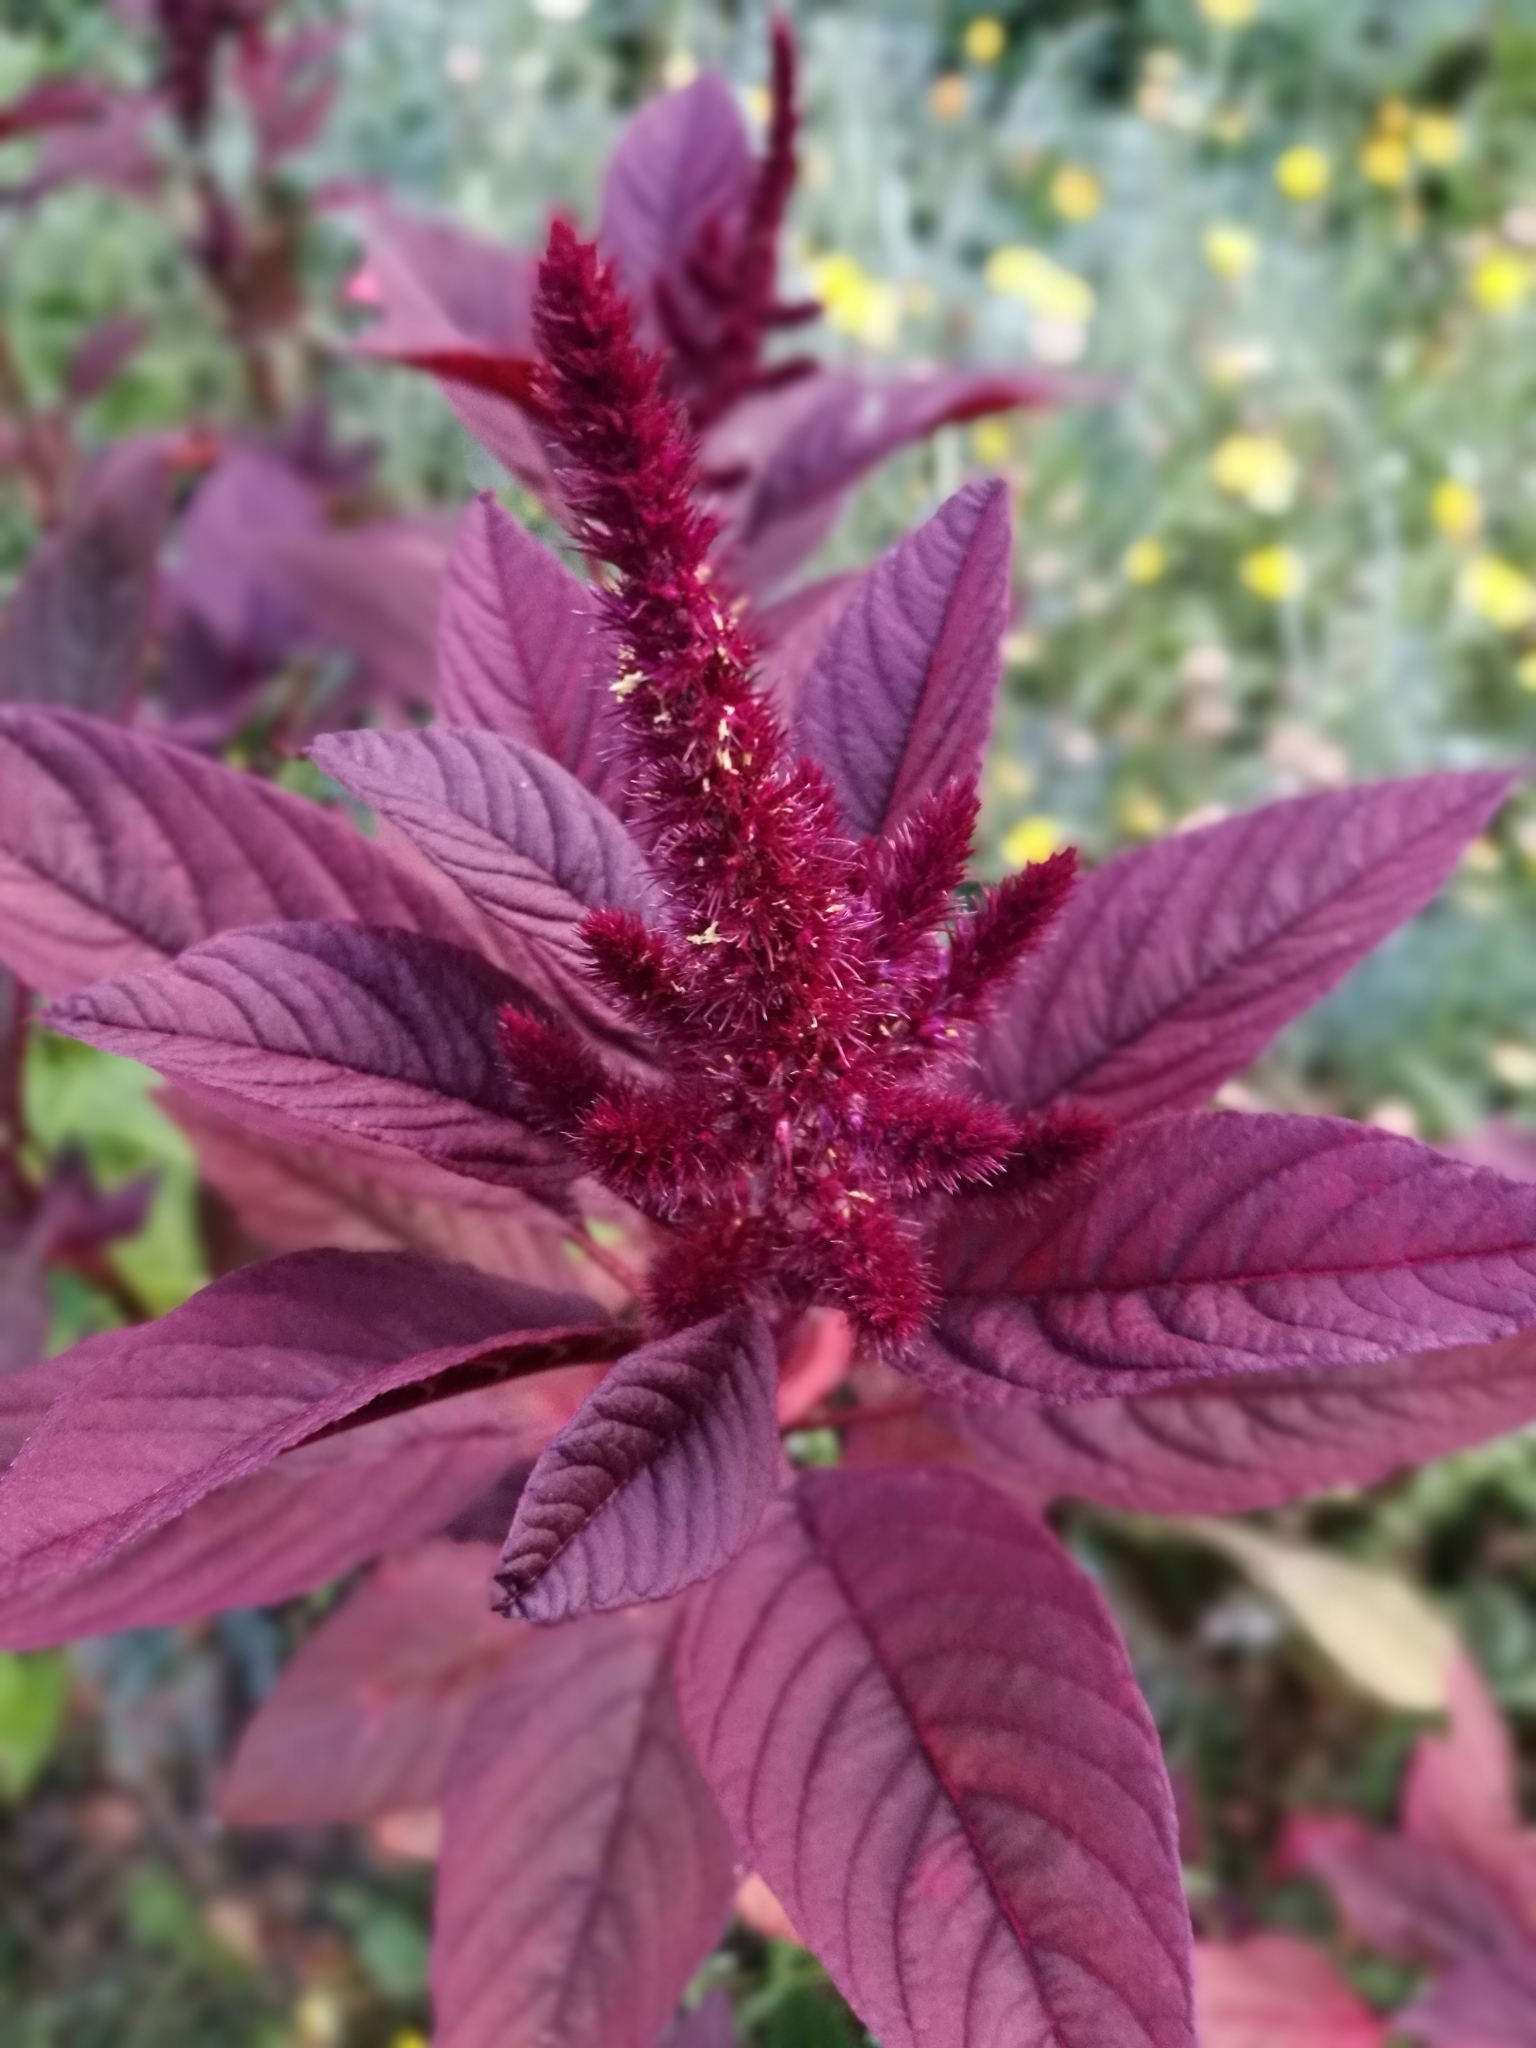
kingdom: Plantae
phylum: Tracheophyta
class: Magnoliopsida
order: Caryophyllales
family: Amaranthaceae
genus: Amaranthus
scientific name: Amaranthus cruentus
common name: Purple amaranth
